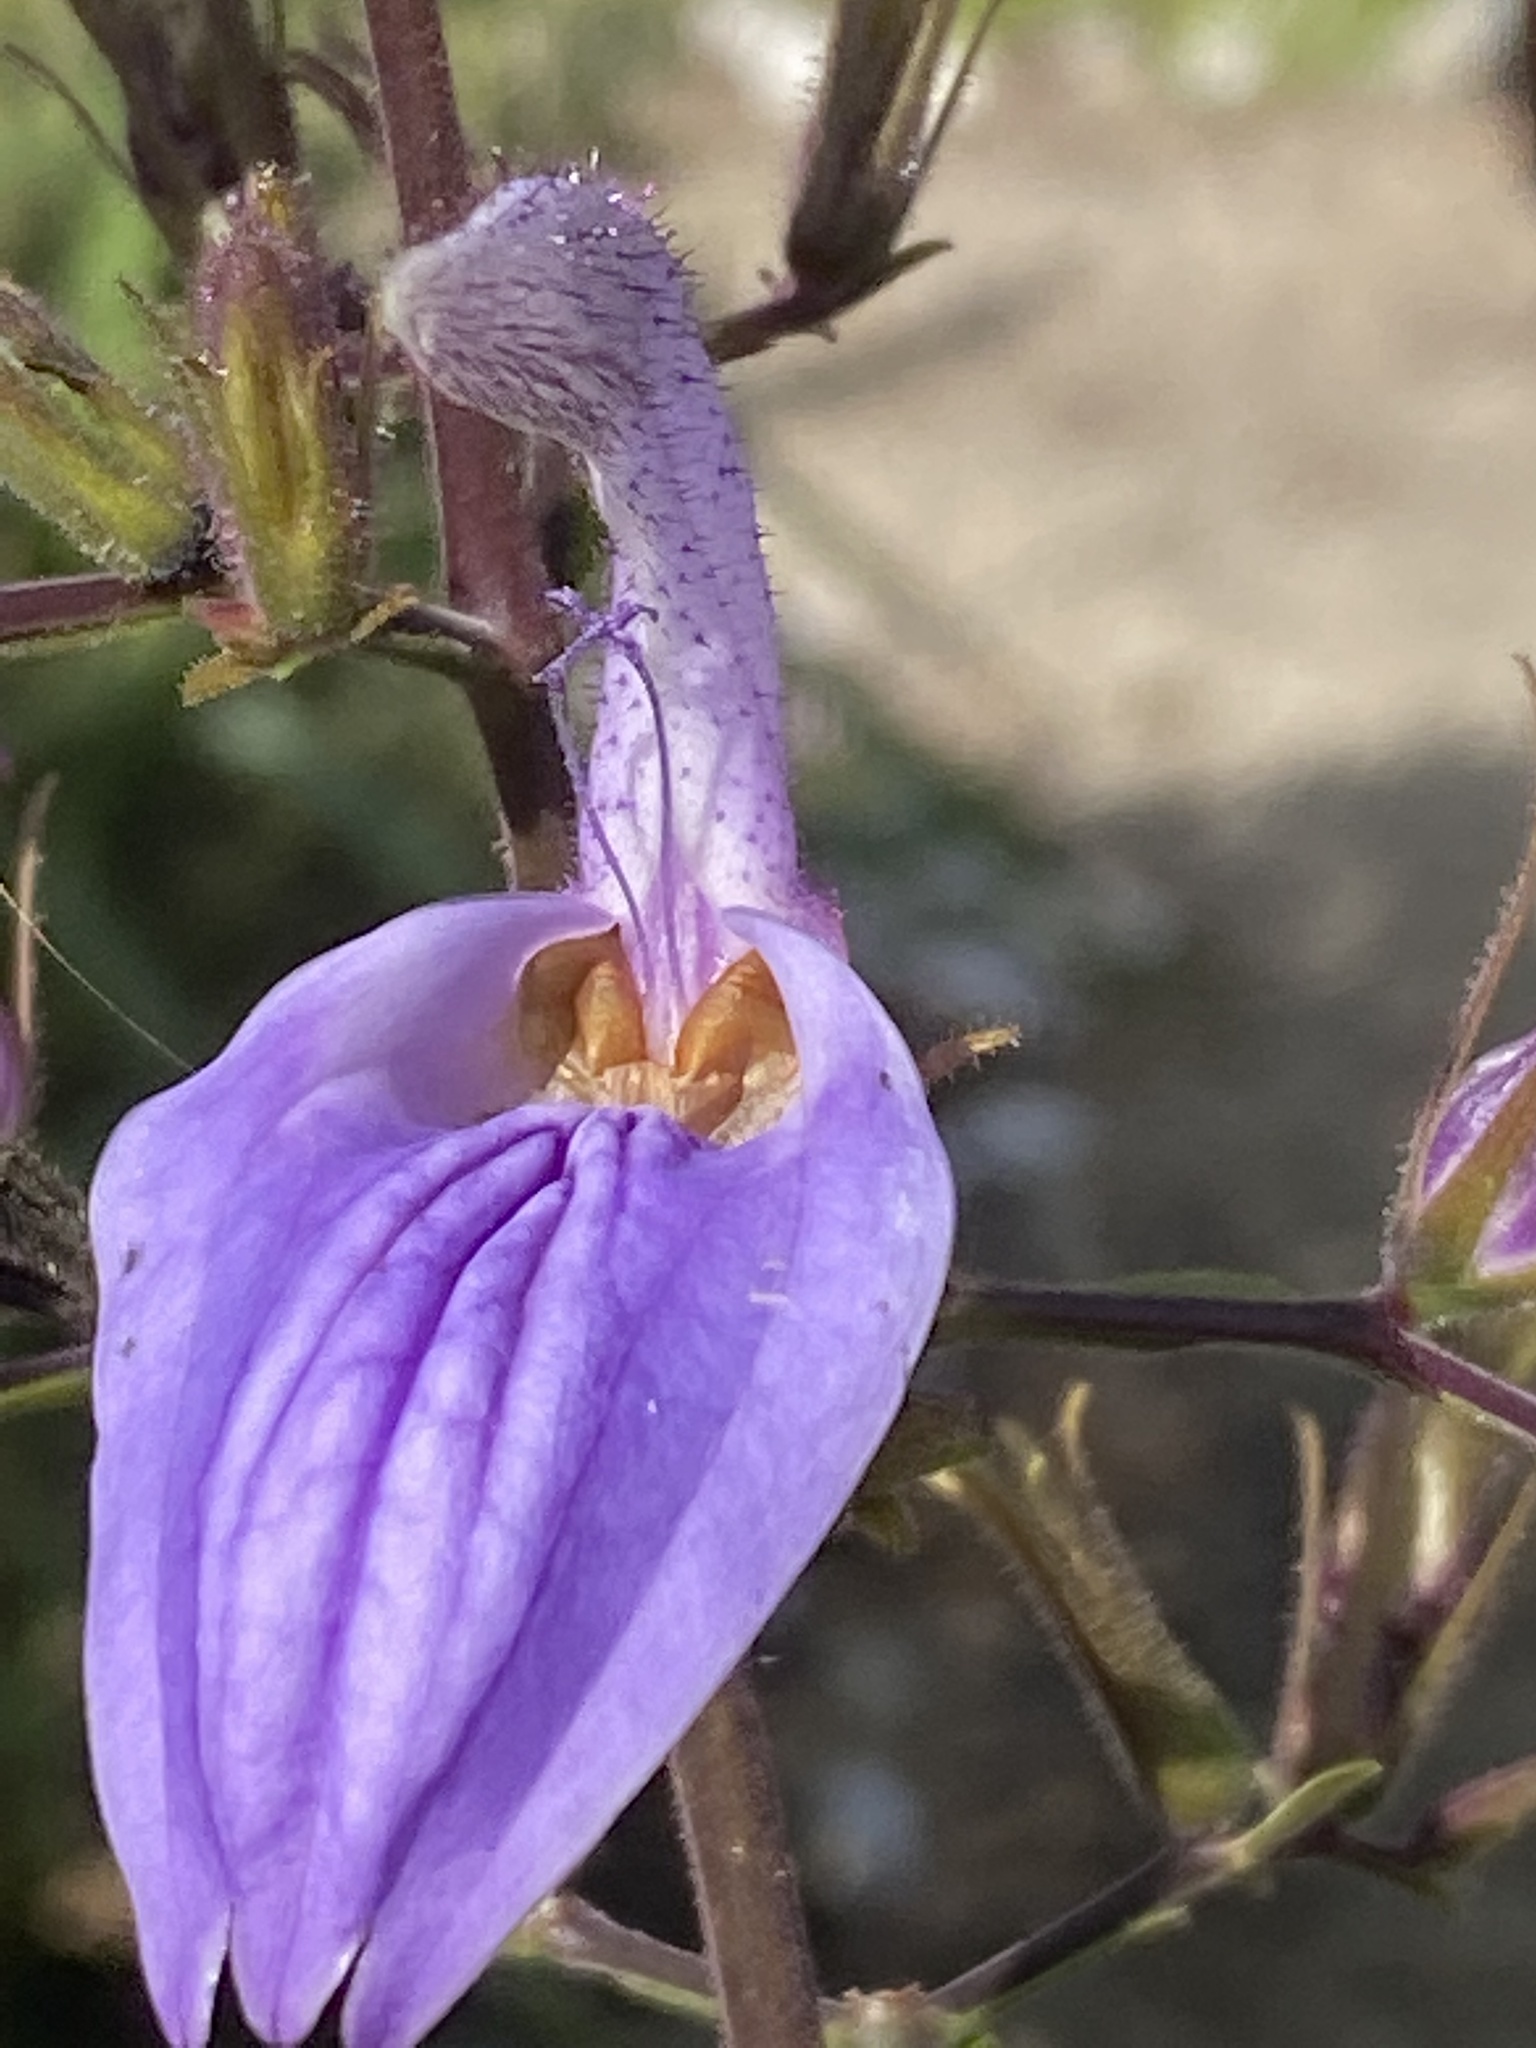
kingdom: Plantae
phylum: Tracheophyta
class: Magnoliopsida
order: Lamiales
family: Acanthaceae
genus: Brillantaisia
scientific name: Brillantaisia owariensis
